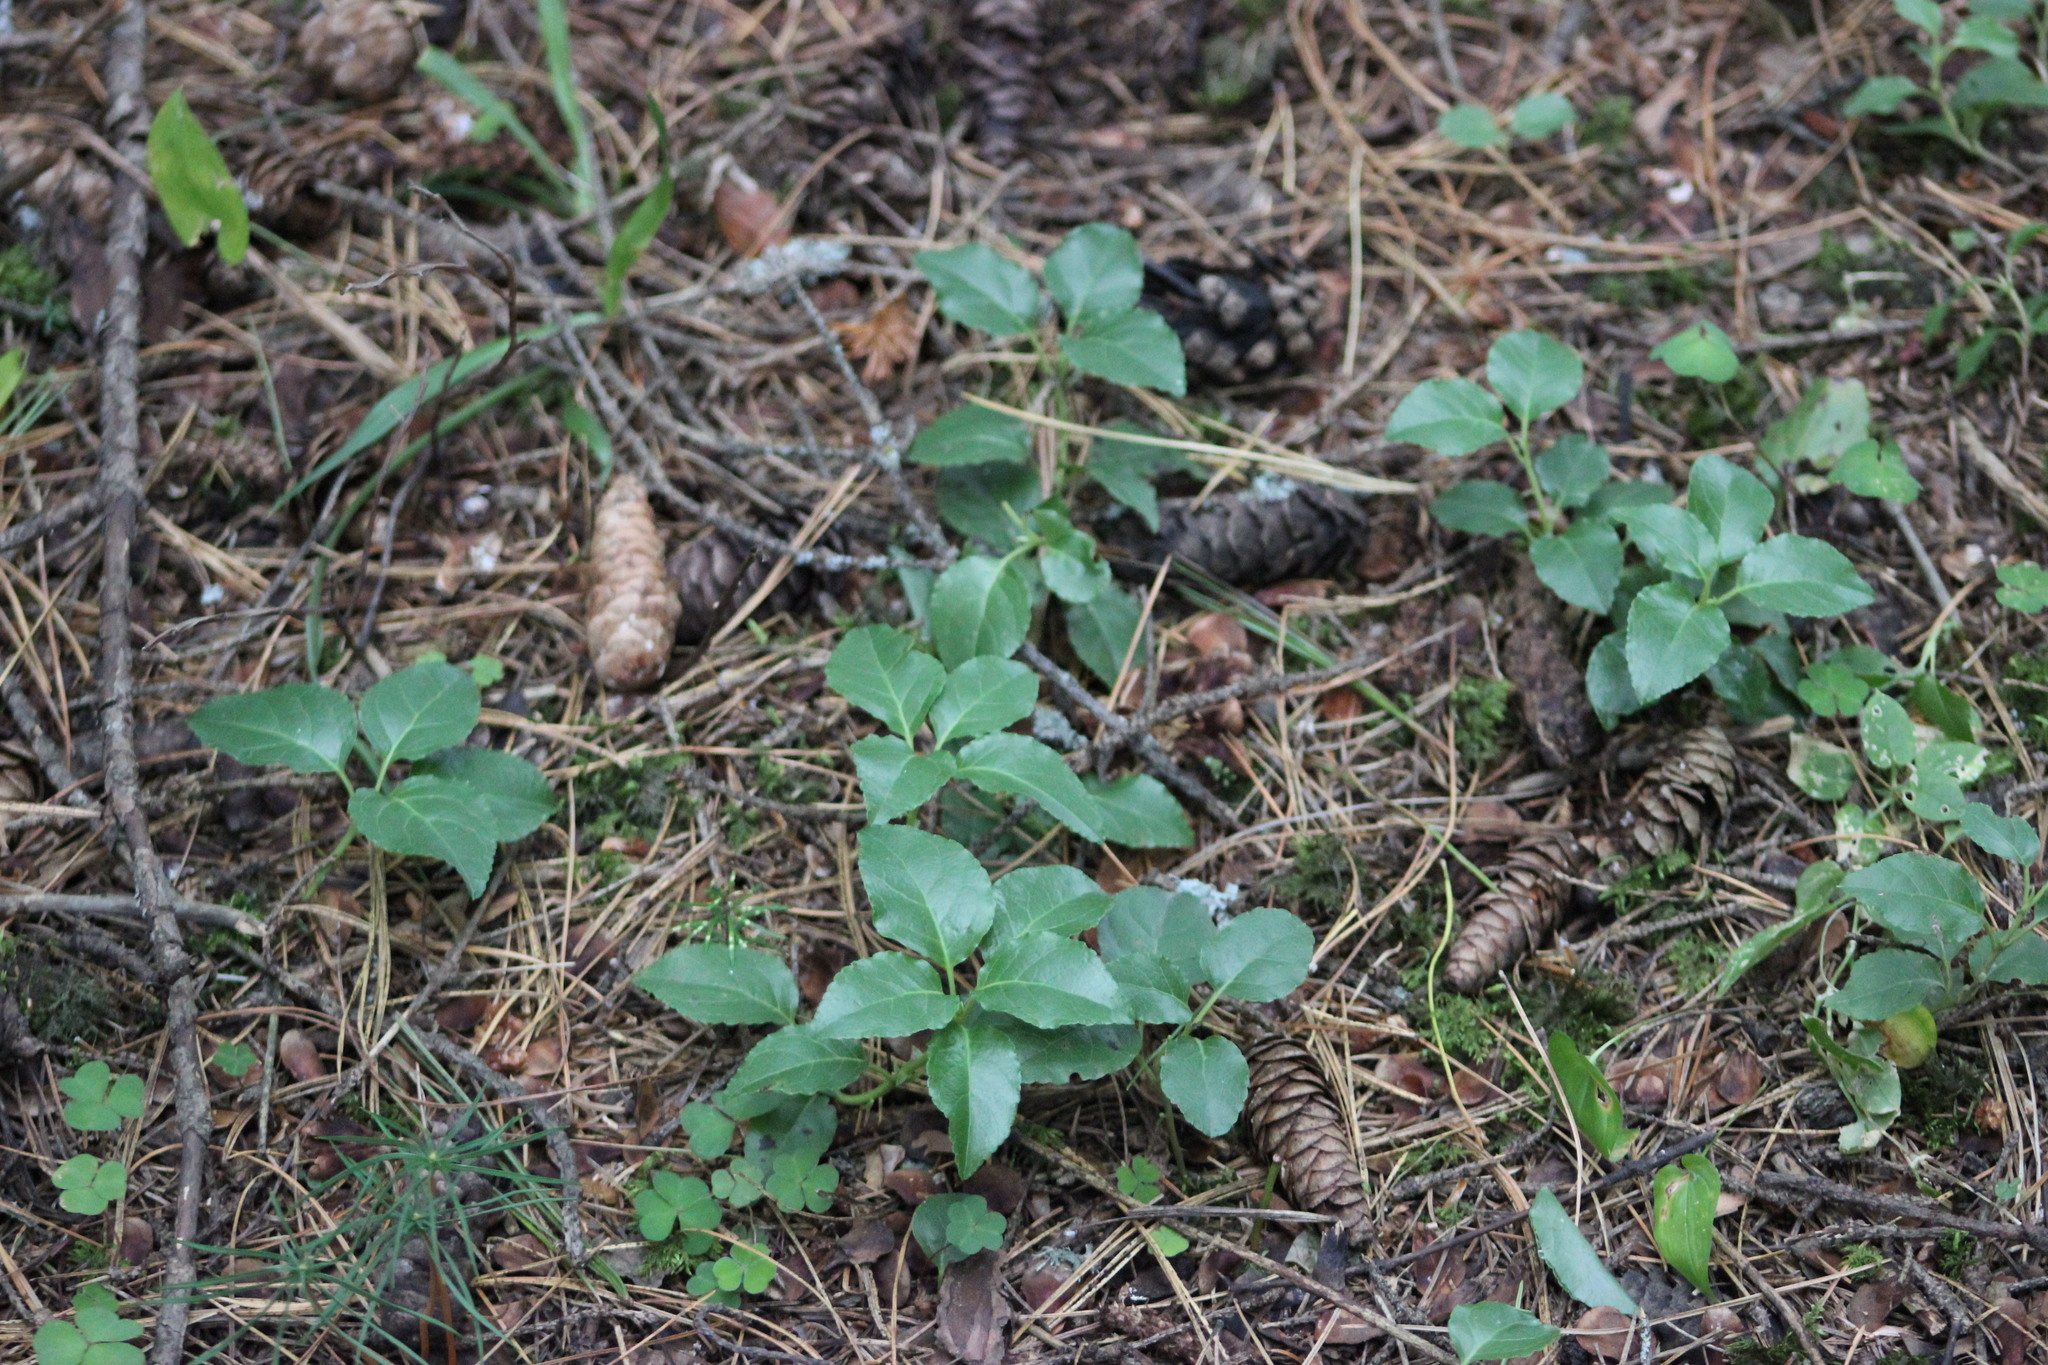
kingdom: Plantae
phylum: Tracheophyta
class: Magnoliopsida
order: Ericales
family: Ericaceae
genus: Orthilia
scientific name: Orthilia secunda
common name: One-sided orthilia
